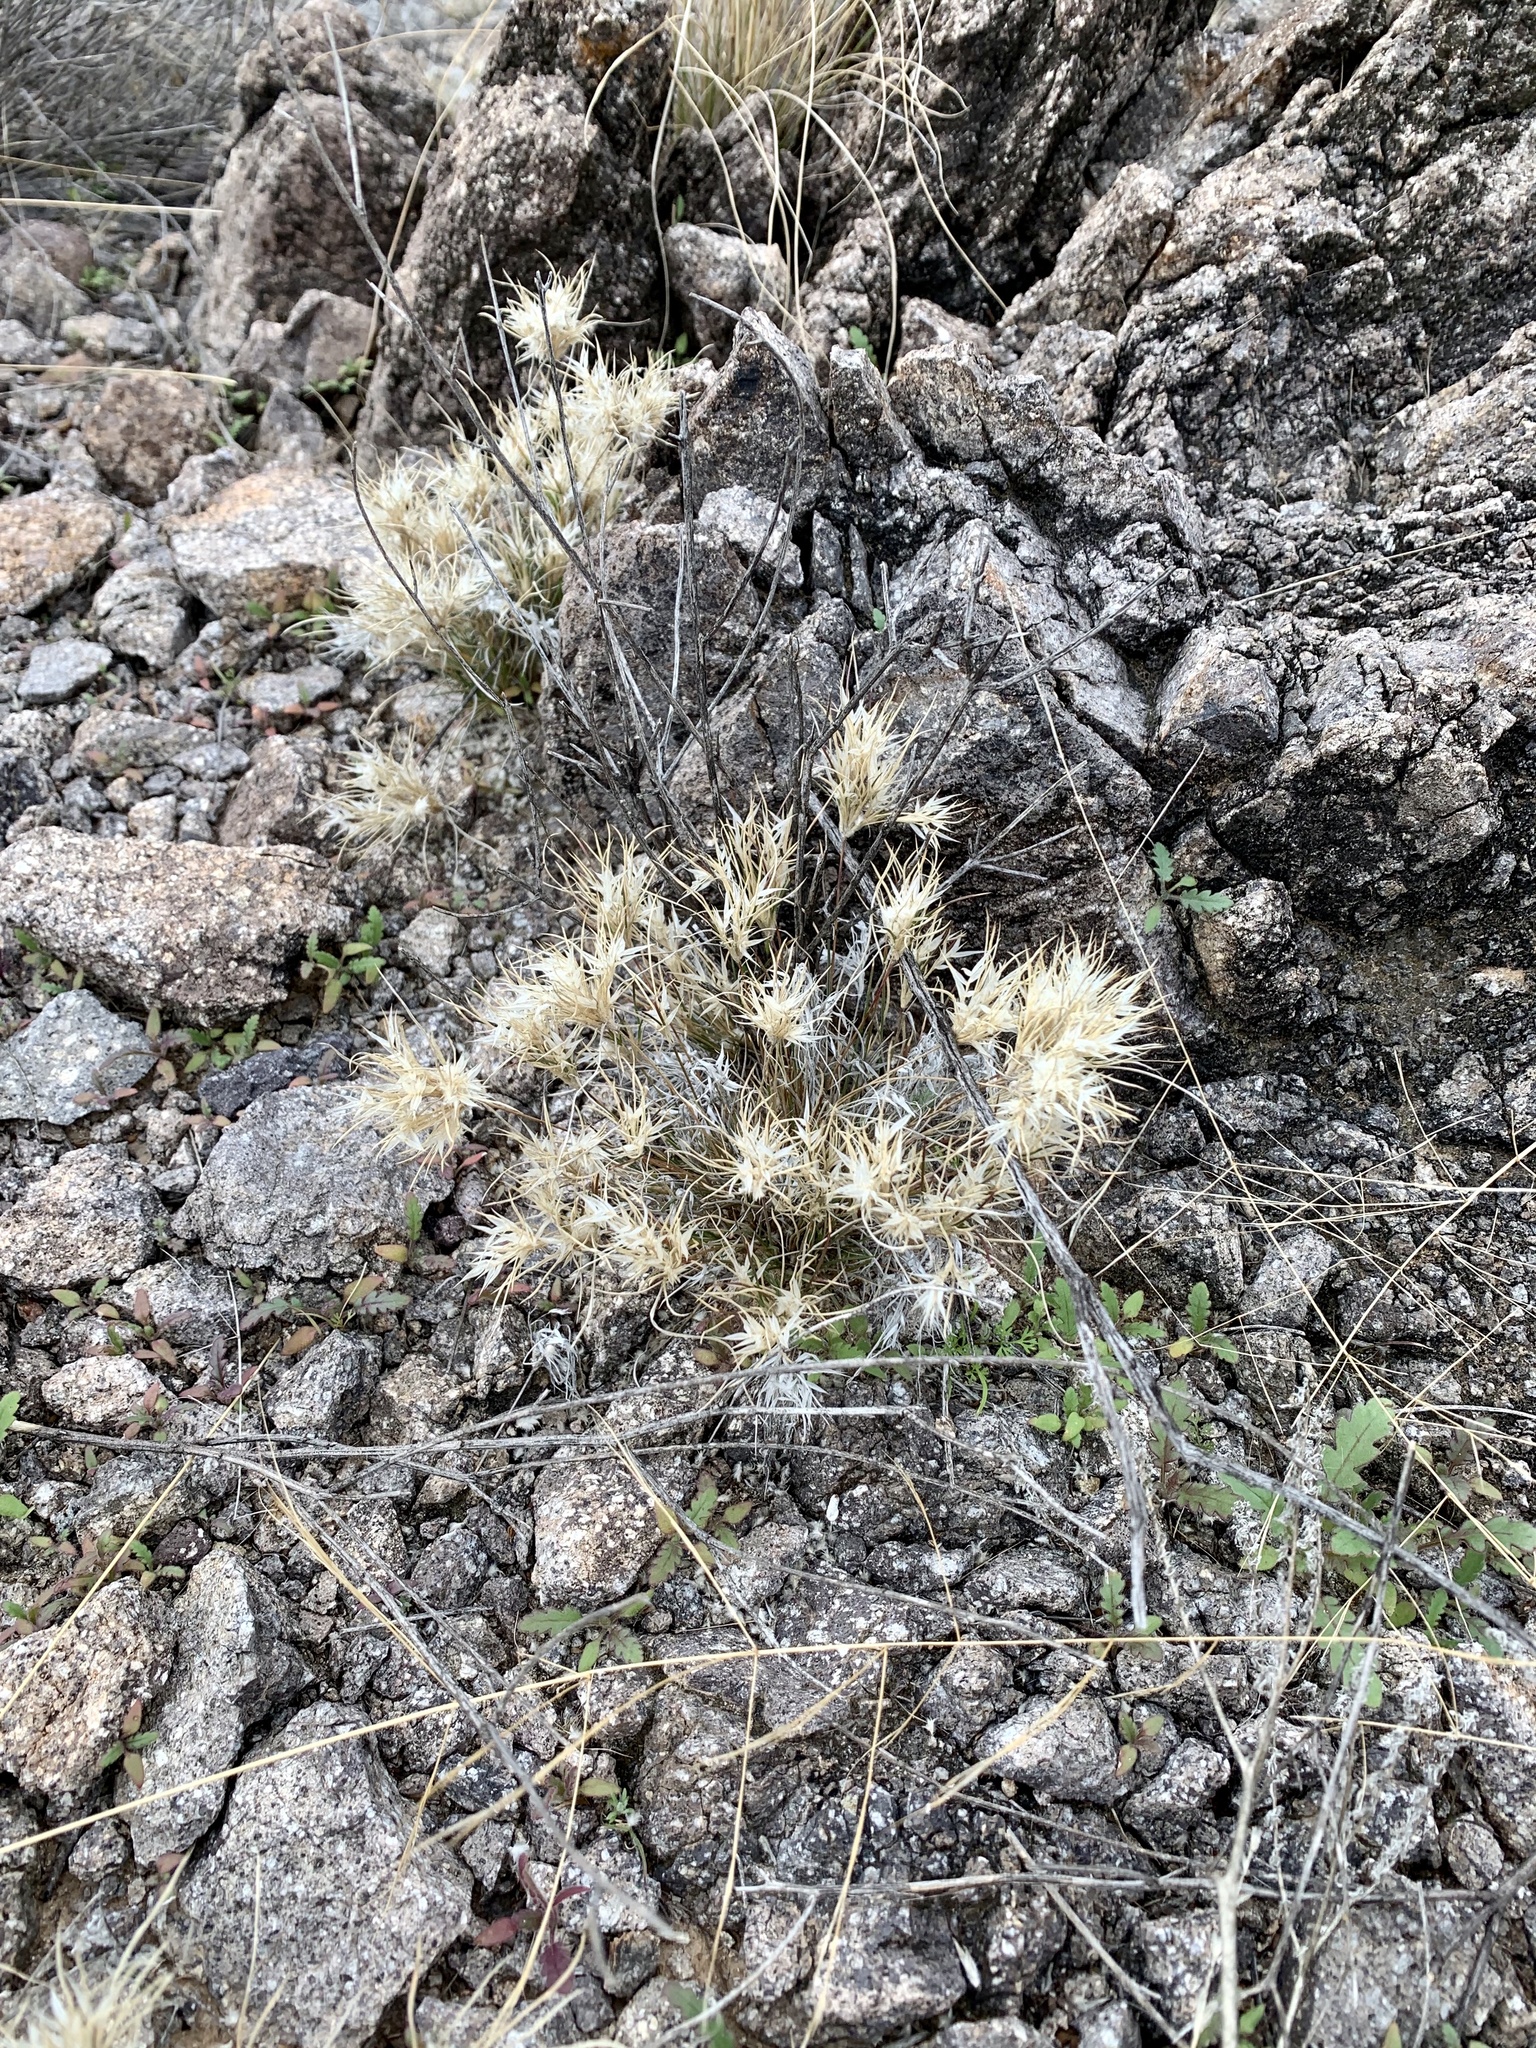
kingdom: Plantae
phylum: Tracheophyta
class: Liliopsida
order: Poales
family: Poaceae
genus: Dasyochloa
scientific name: Dasyochloa pulchella
